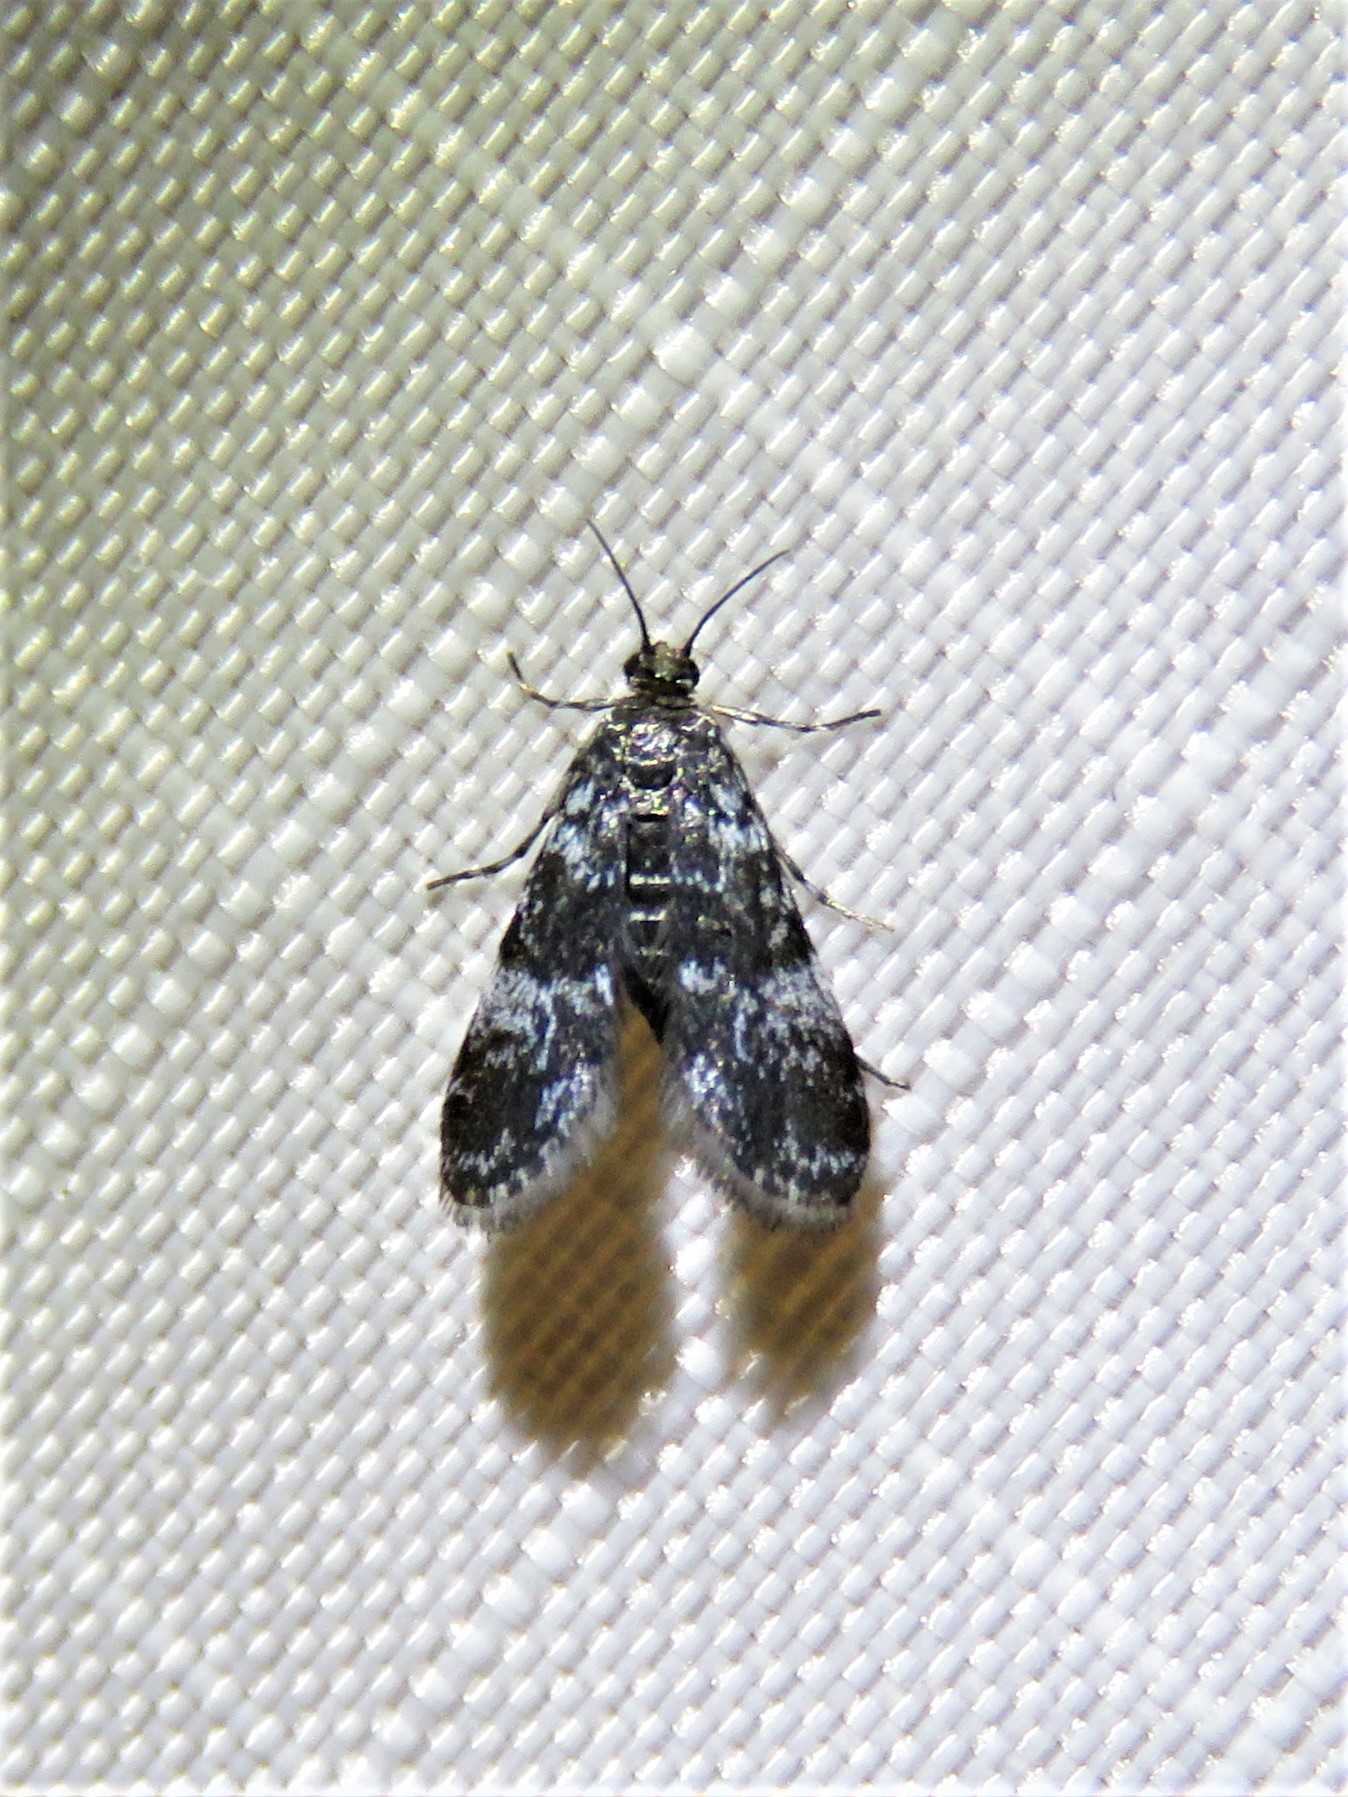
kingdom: Animalia
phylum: Arthropoda
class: Insecta
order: Lepidoptera
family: Crambidae
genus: Elophila
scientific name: Elophila tinealis
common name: Black duckweed moth
